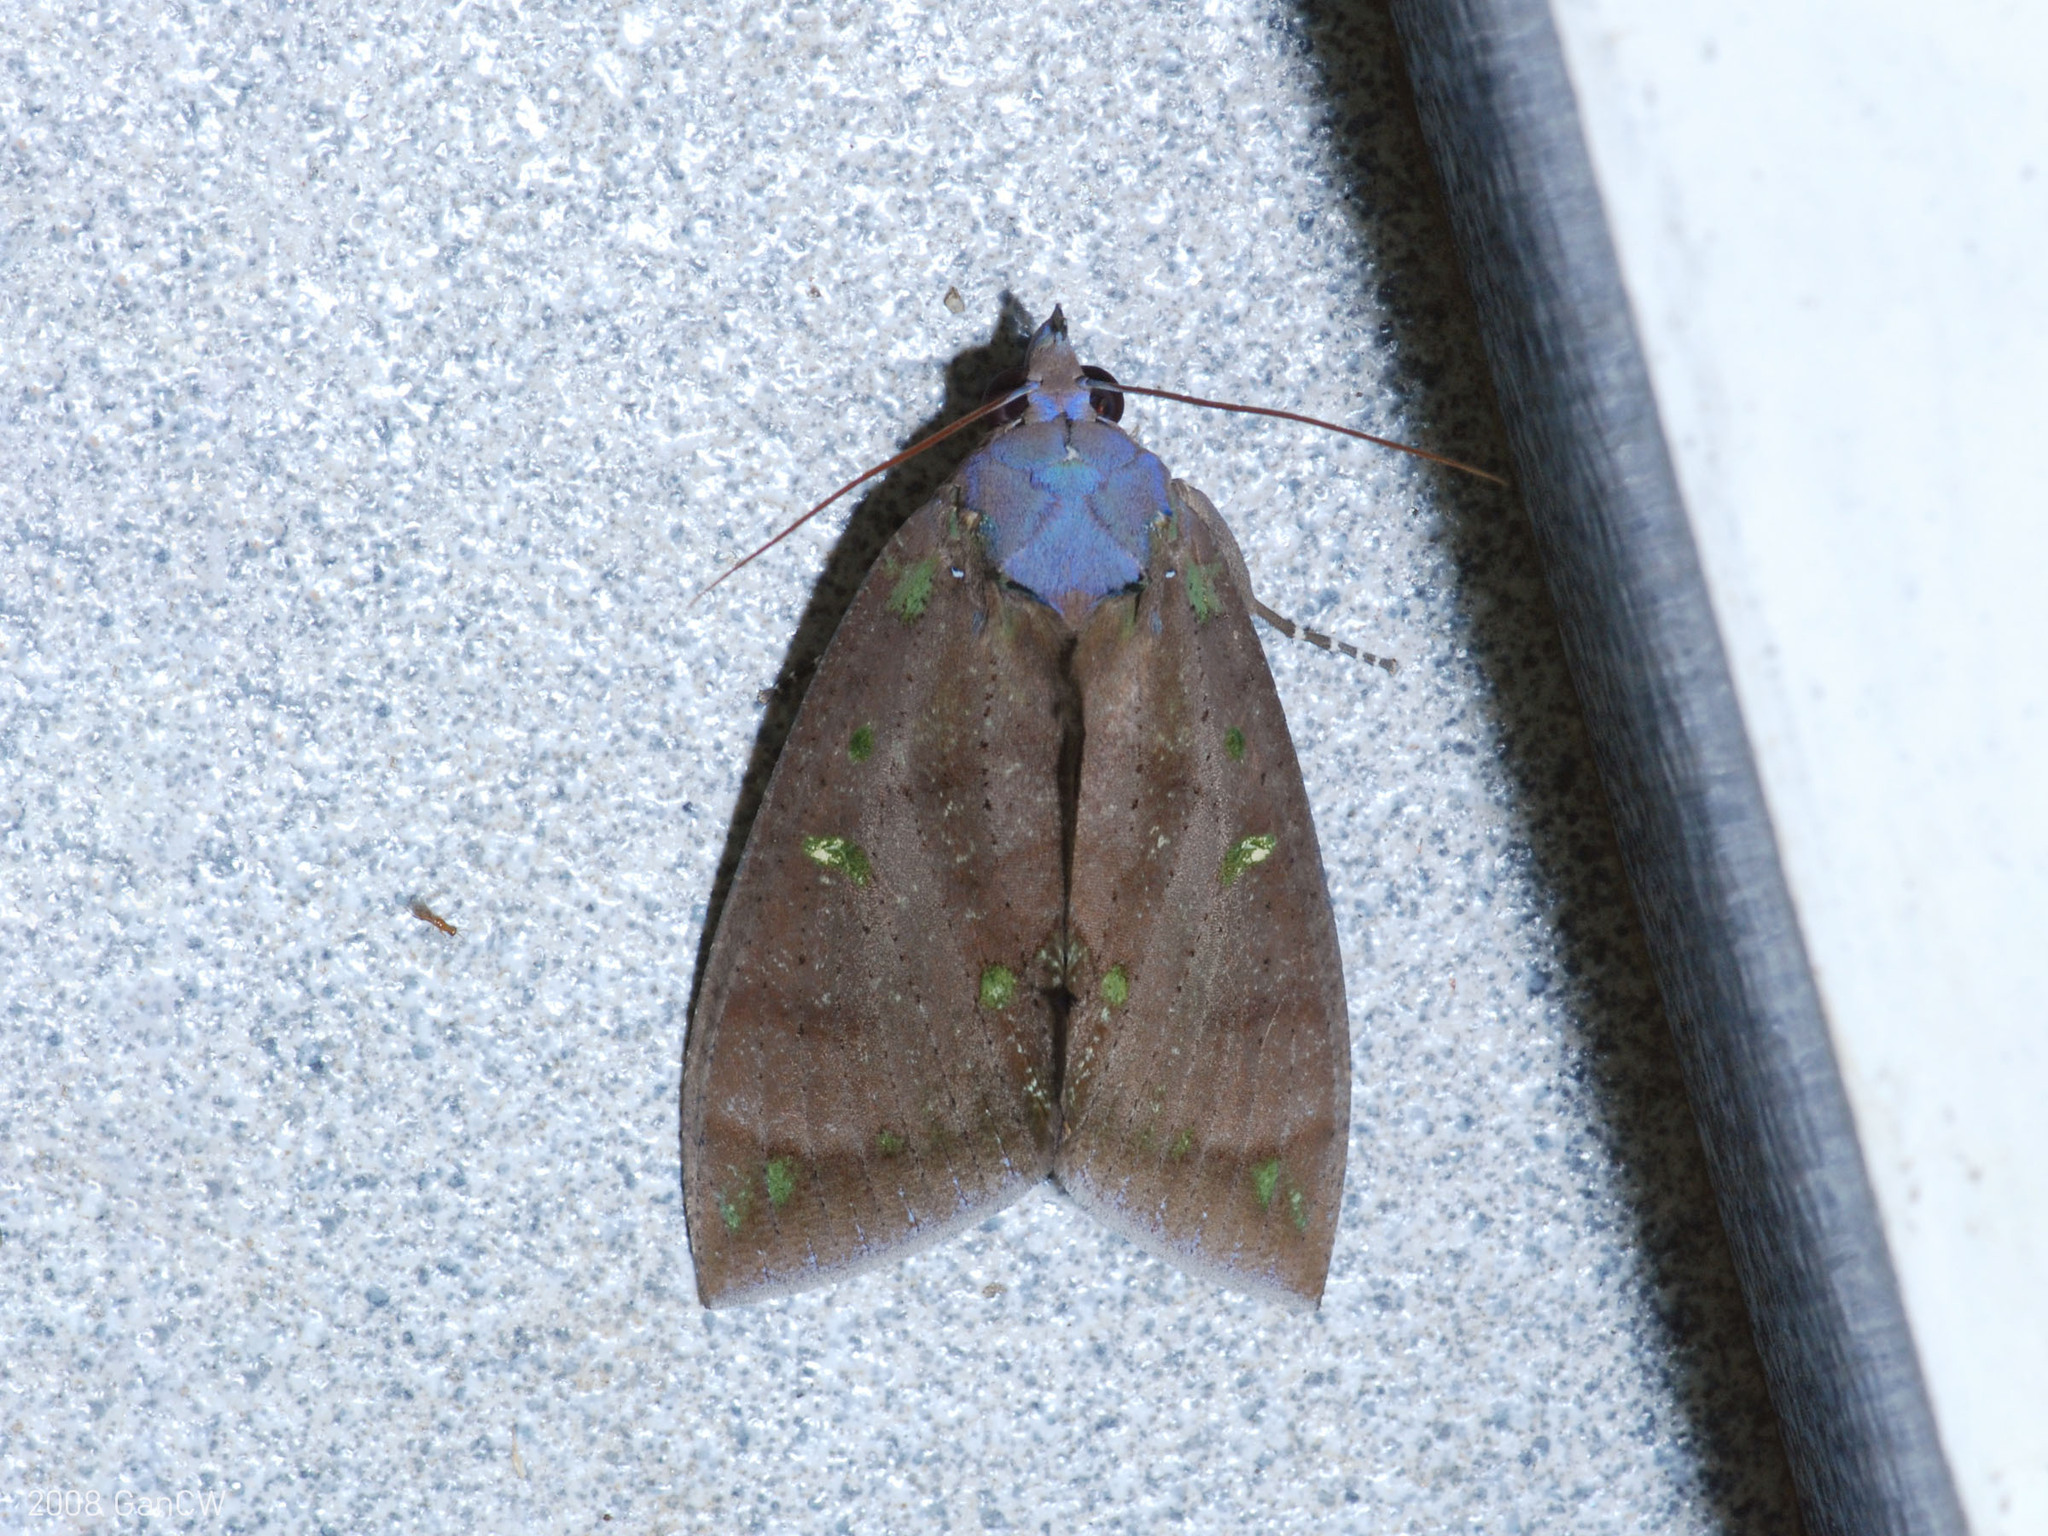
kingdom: Animalia
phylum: Arthropoda
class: Insecta
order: Lepidoptera
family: Erebidae
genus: Eudocima
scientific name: Eudocima discrepans
